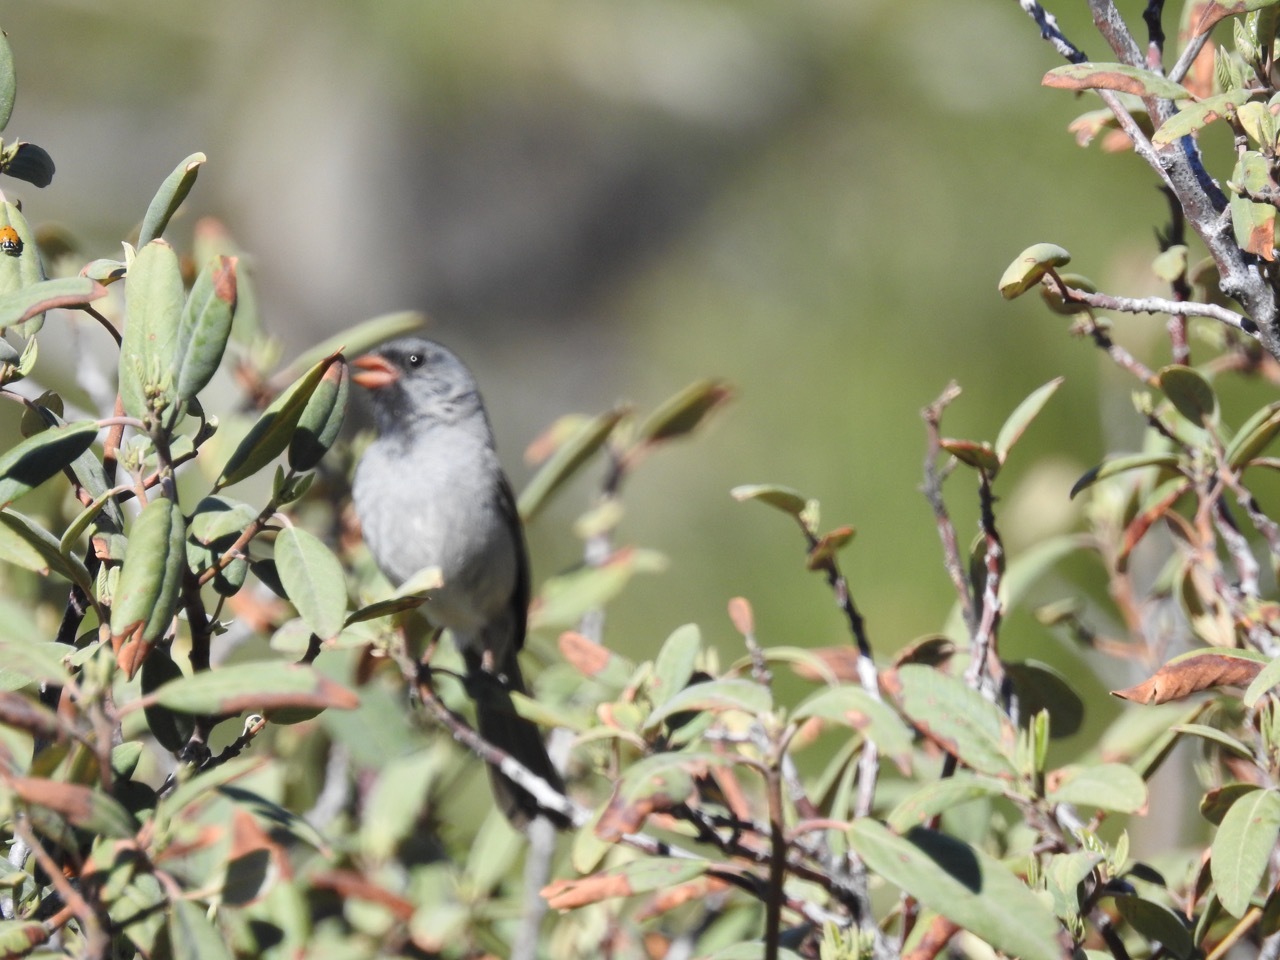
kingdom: Animalia
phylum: Chordata
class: Aves
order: Passeriformes
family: Passerellidae
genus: Spizella
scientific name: Spizella atrogularis
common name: Black-chinned sparrow
